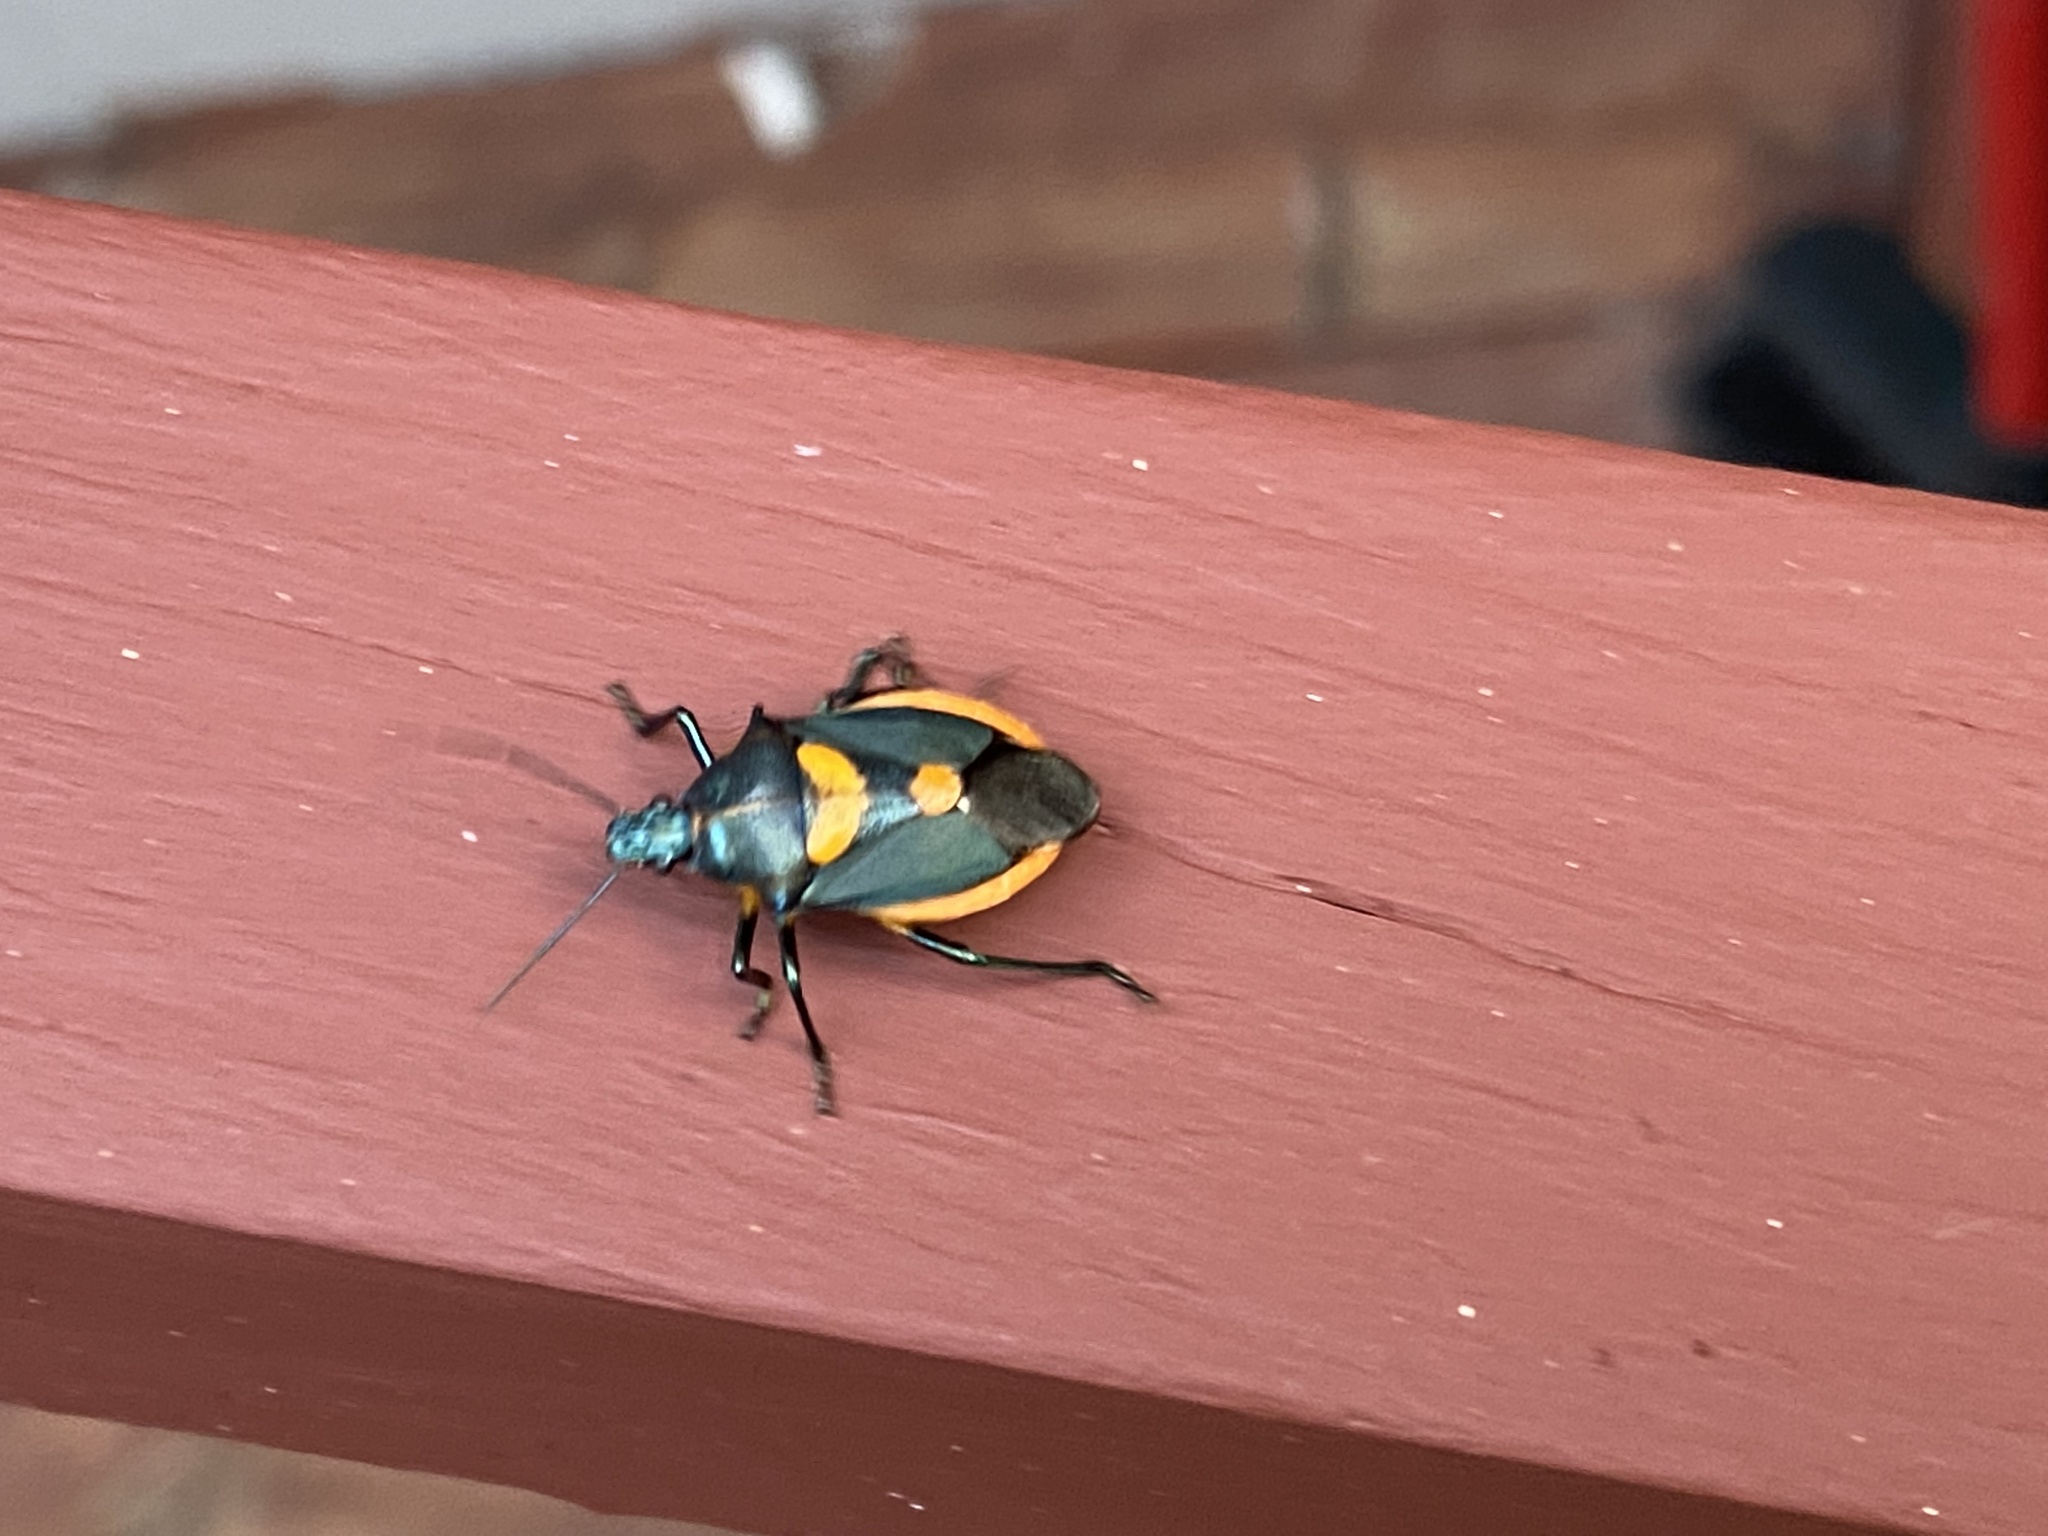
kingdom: Animalia
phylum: Arthropoda
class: Insecta
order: Hemiptera
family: Pentatomidae
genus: Euthyrhynchus
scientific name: Euthyrhynchus floridanus
